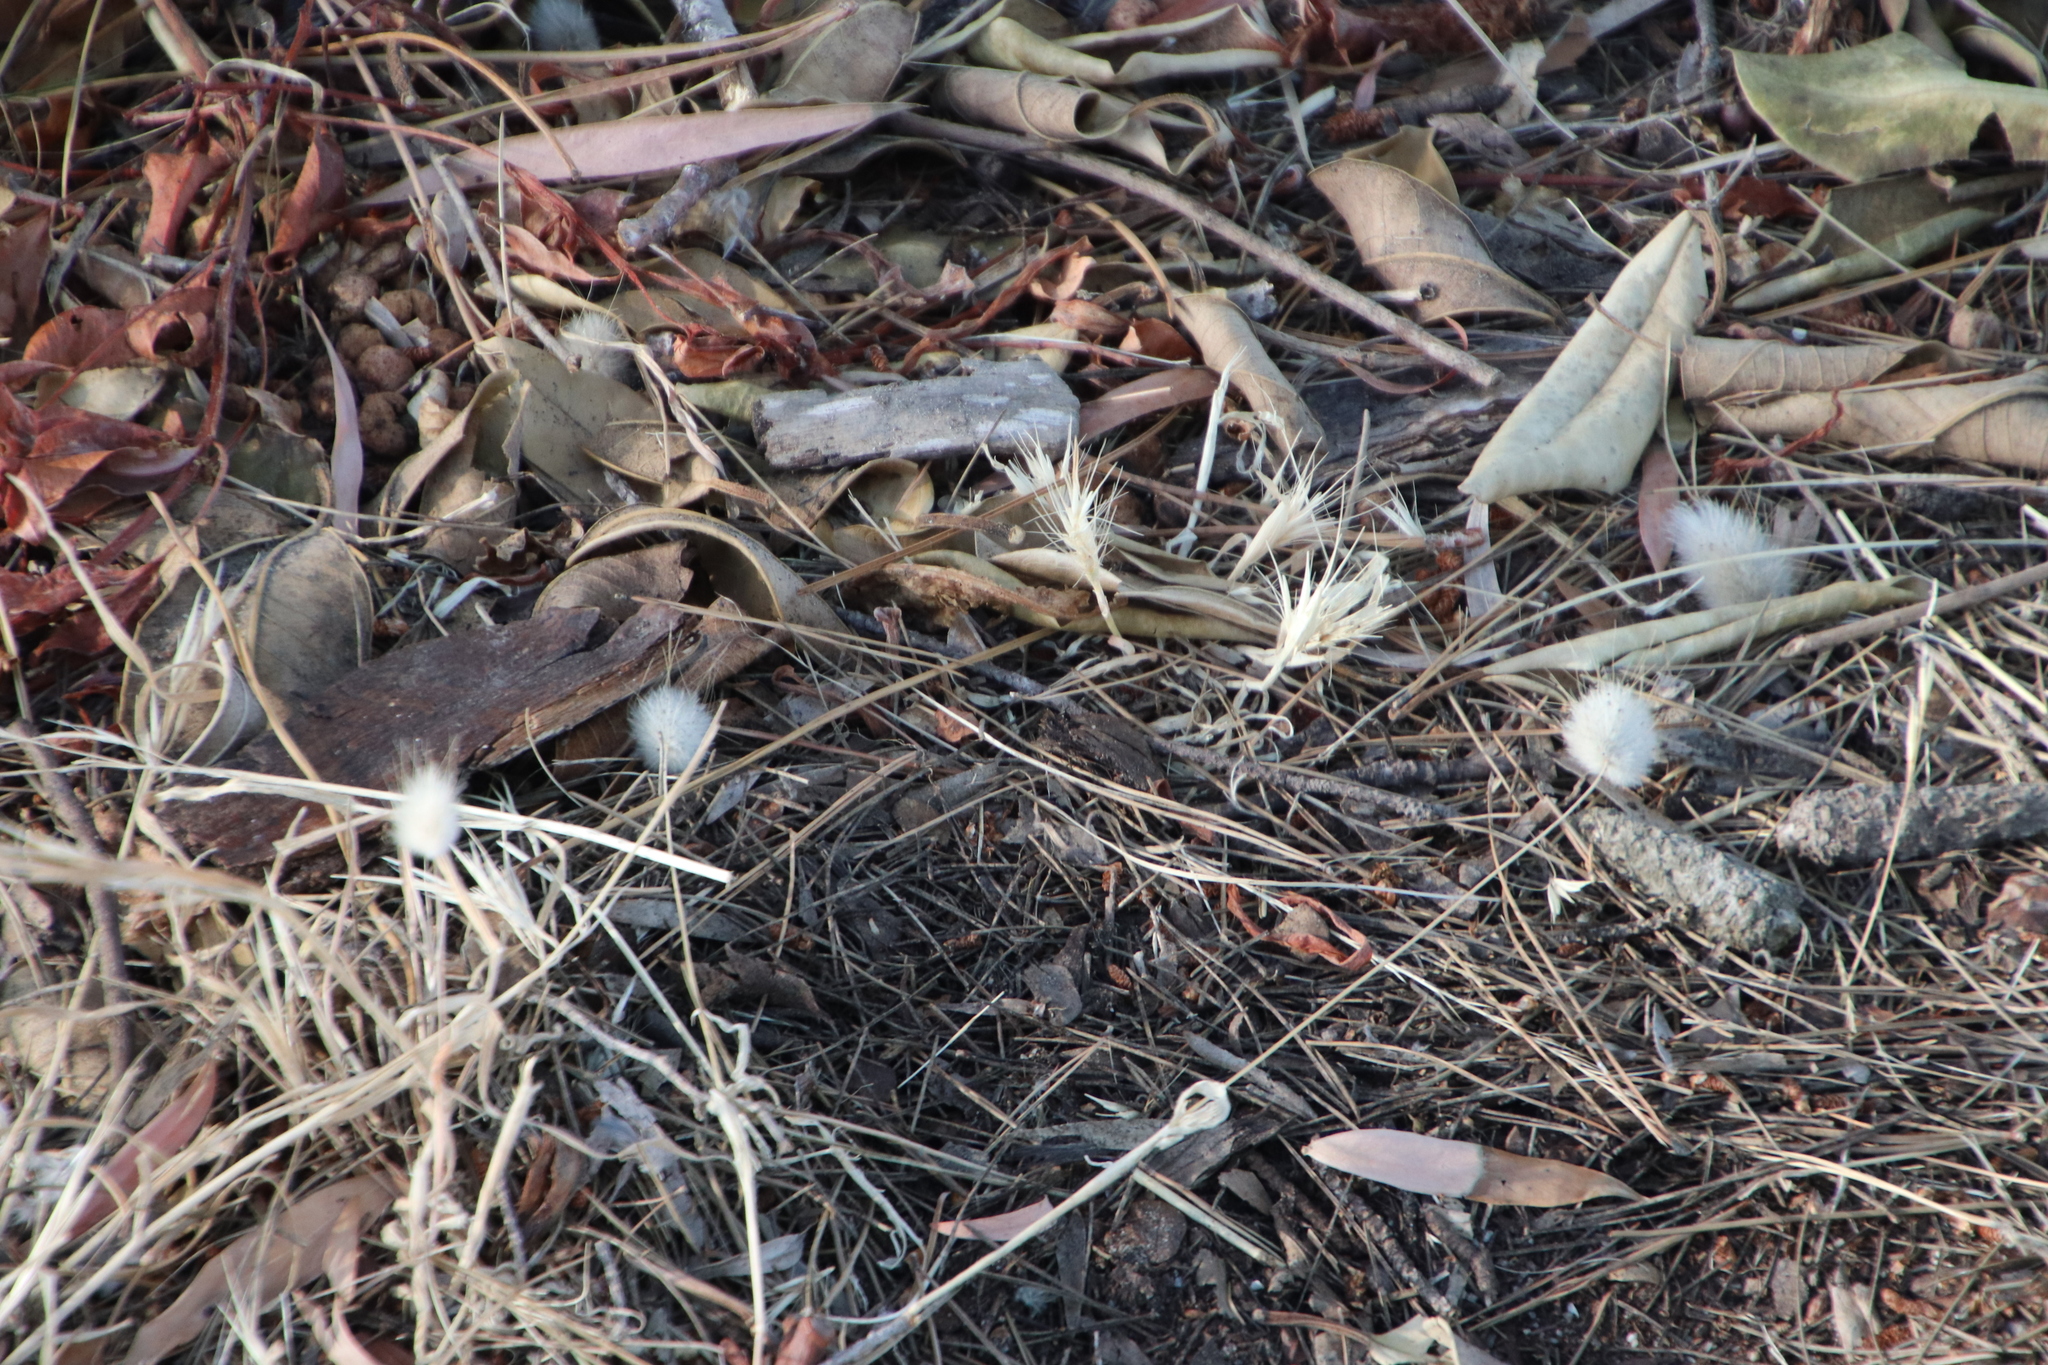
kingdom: Plantae
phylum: Tracheophyta
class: Liliopsida
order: Poales
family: Poaceae
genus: Lagurus
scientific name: Lagurus ovatus
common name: Hare's-tail
